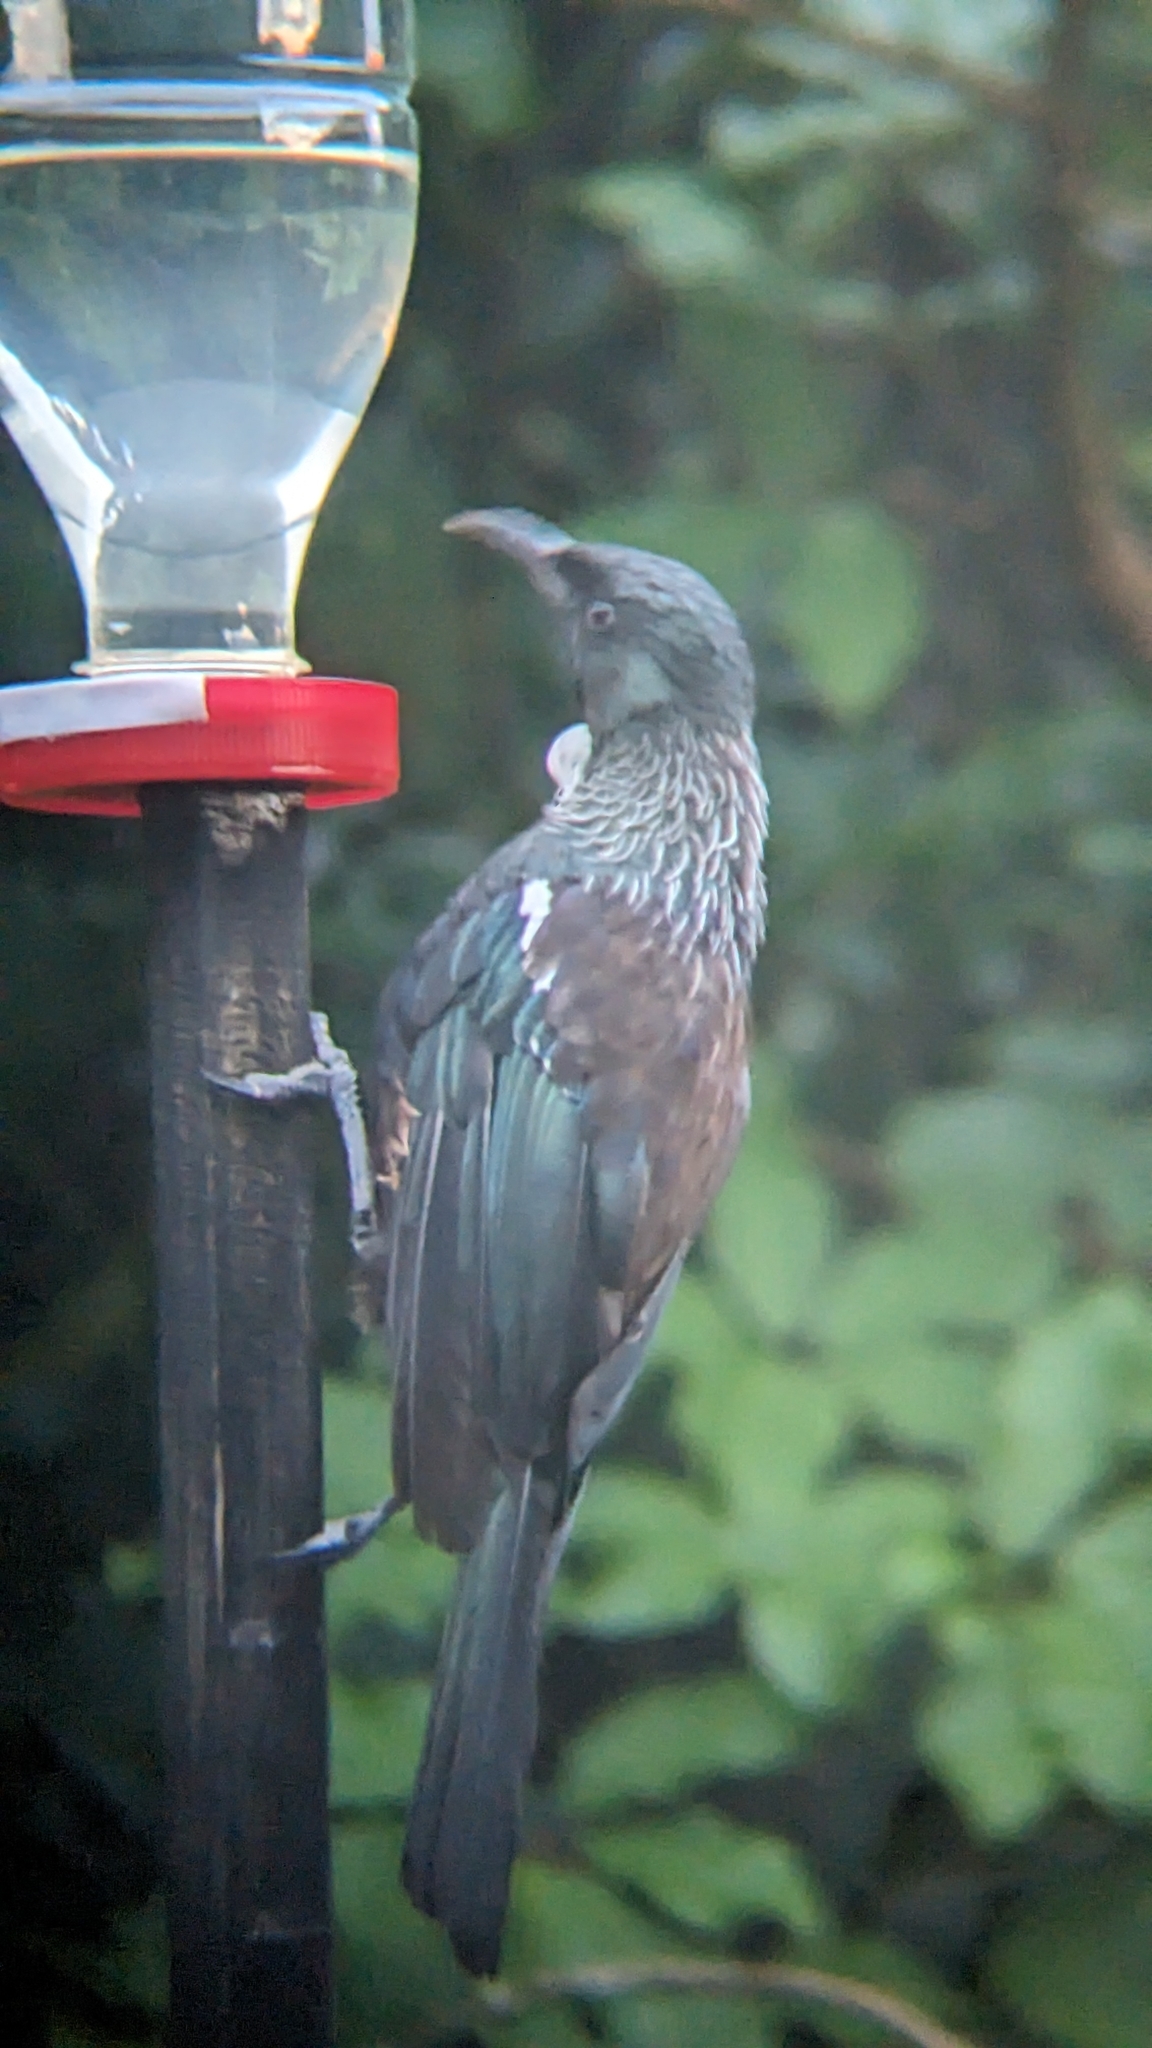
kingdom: Animalia
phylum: Chordata
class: Aves
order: Passeriformes
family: Meliphagidae
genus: Prosthemadera
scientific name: Prosthemadera novaeseelandiae
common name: Tui
